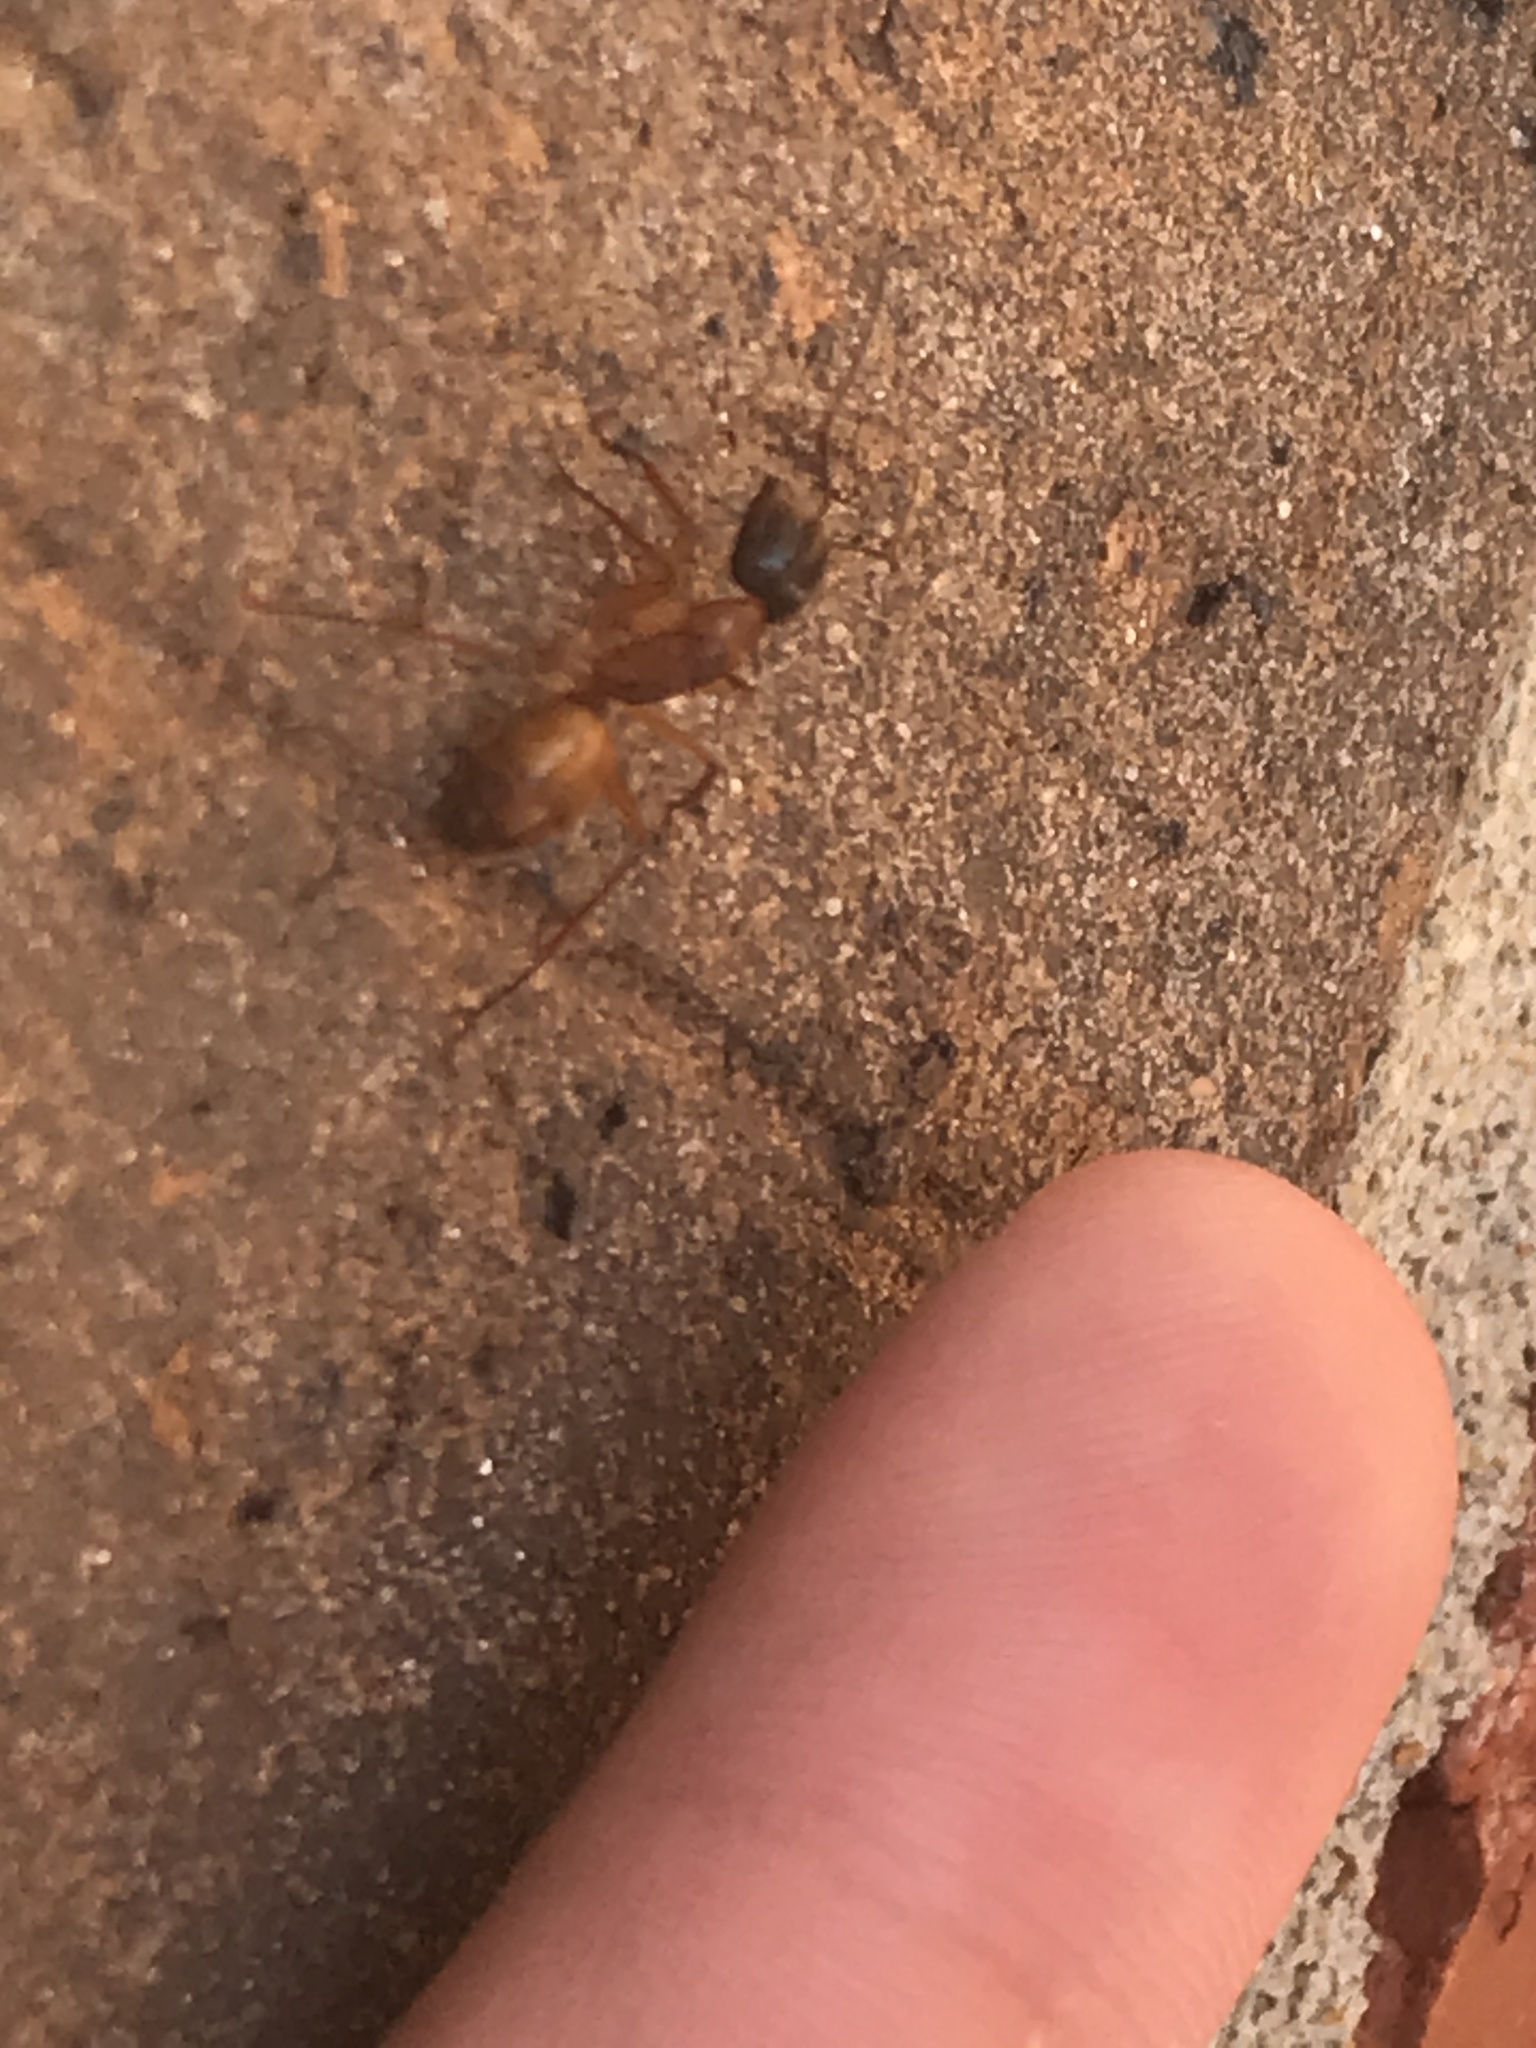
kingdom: Animalia
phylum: Arthropoda
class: Insecta
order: Hymenoptera
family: Formicidae
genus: Camponotus
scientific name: Camponotus castaneus
